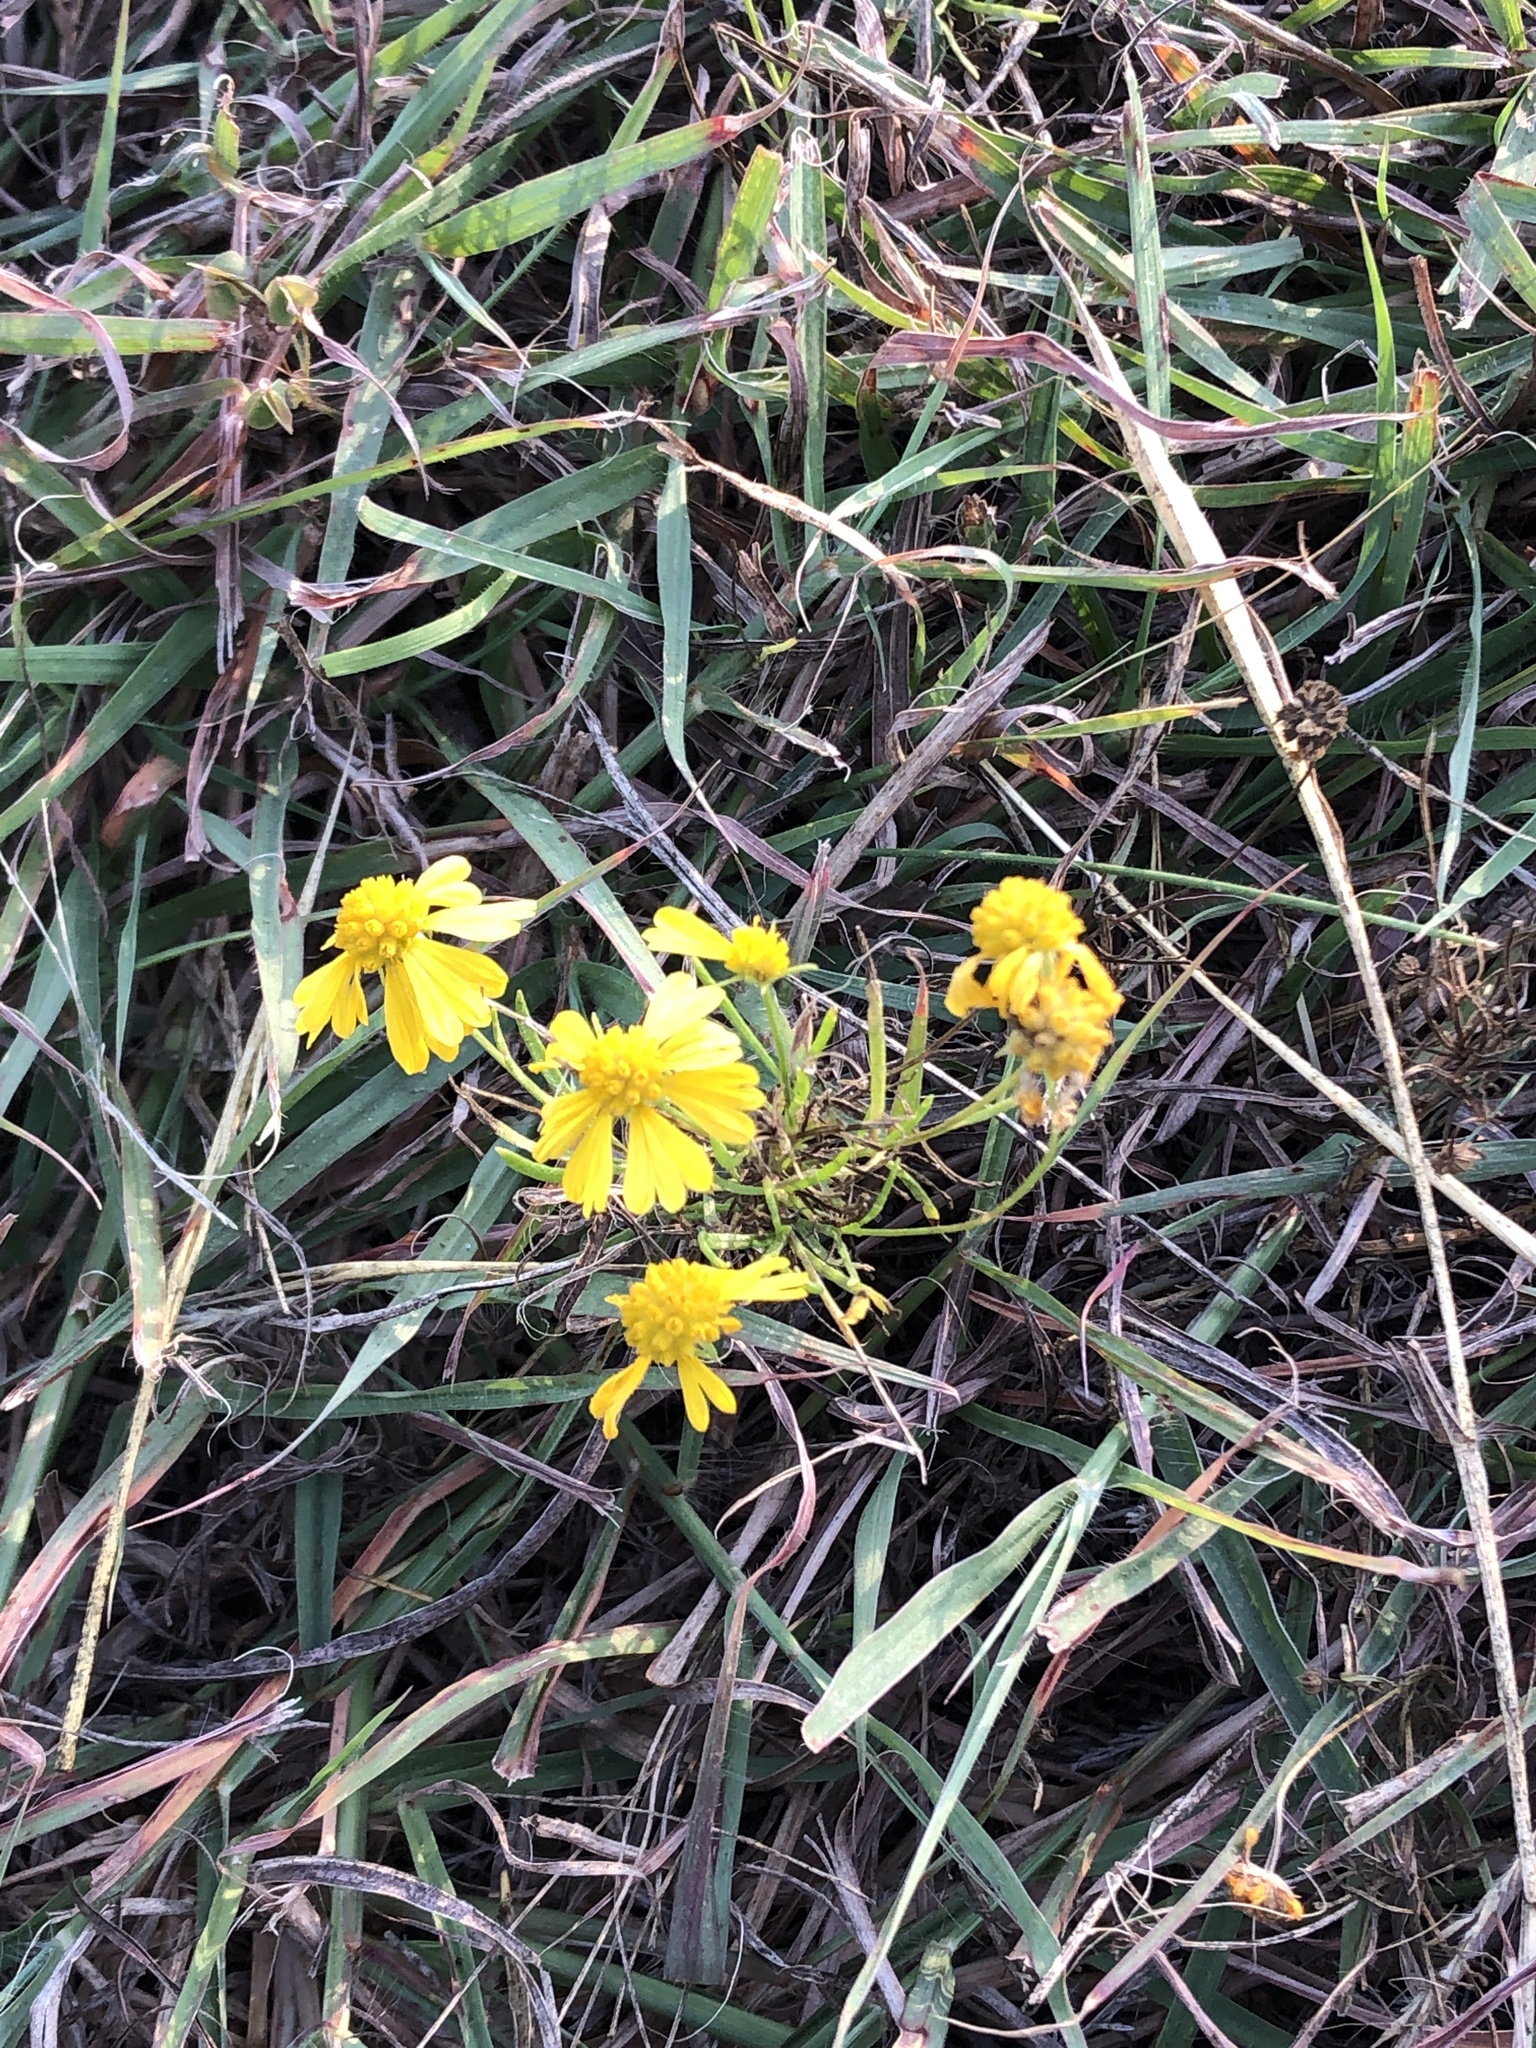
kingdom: Plantae
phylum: Tracheophyta
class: Magnoliopsida
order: Asterales
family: Asteraceae
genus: Helenium
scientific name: Helenium amarum
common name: Bitter sneezeweed
